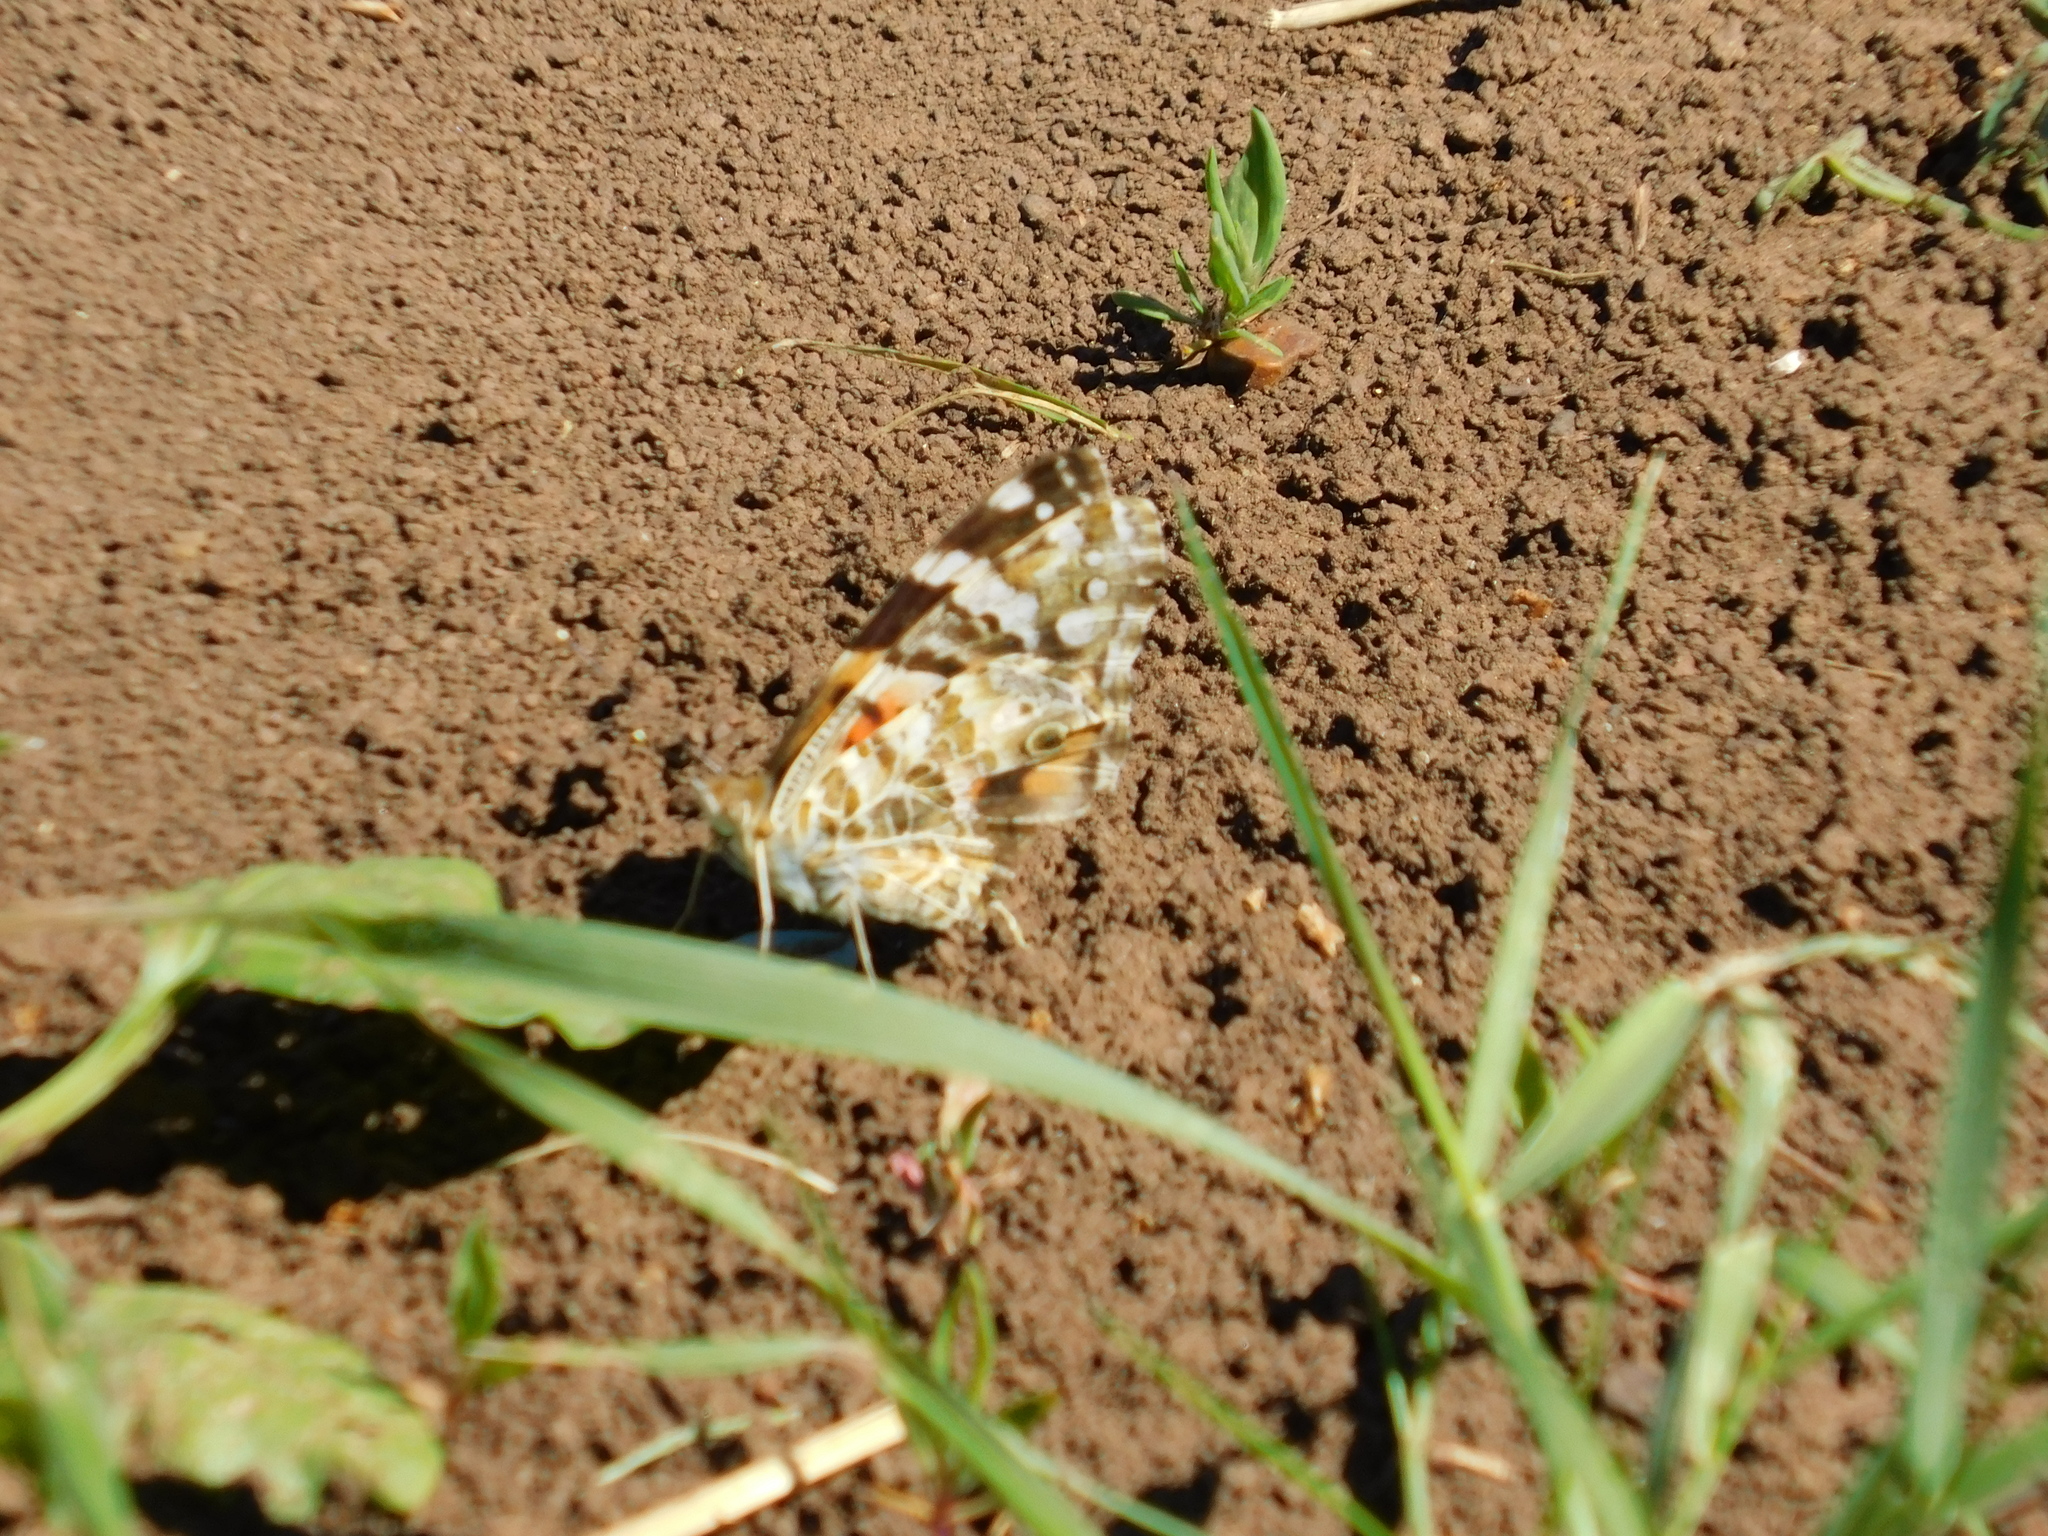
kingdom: Animalia
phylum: Arthropoda
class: Insecta
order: Lepidoptera
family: Nymphalidae
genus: Vanessa
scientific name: Vanessa cardui
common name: Painted lady
